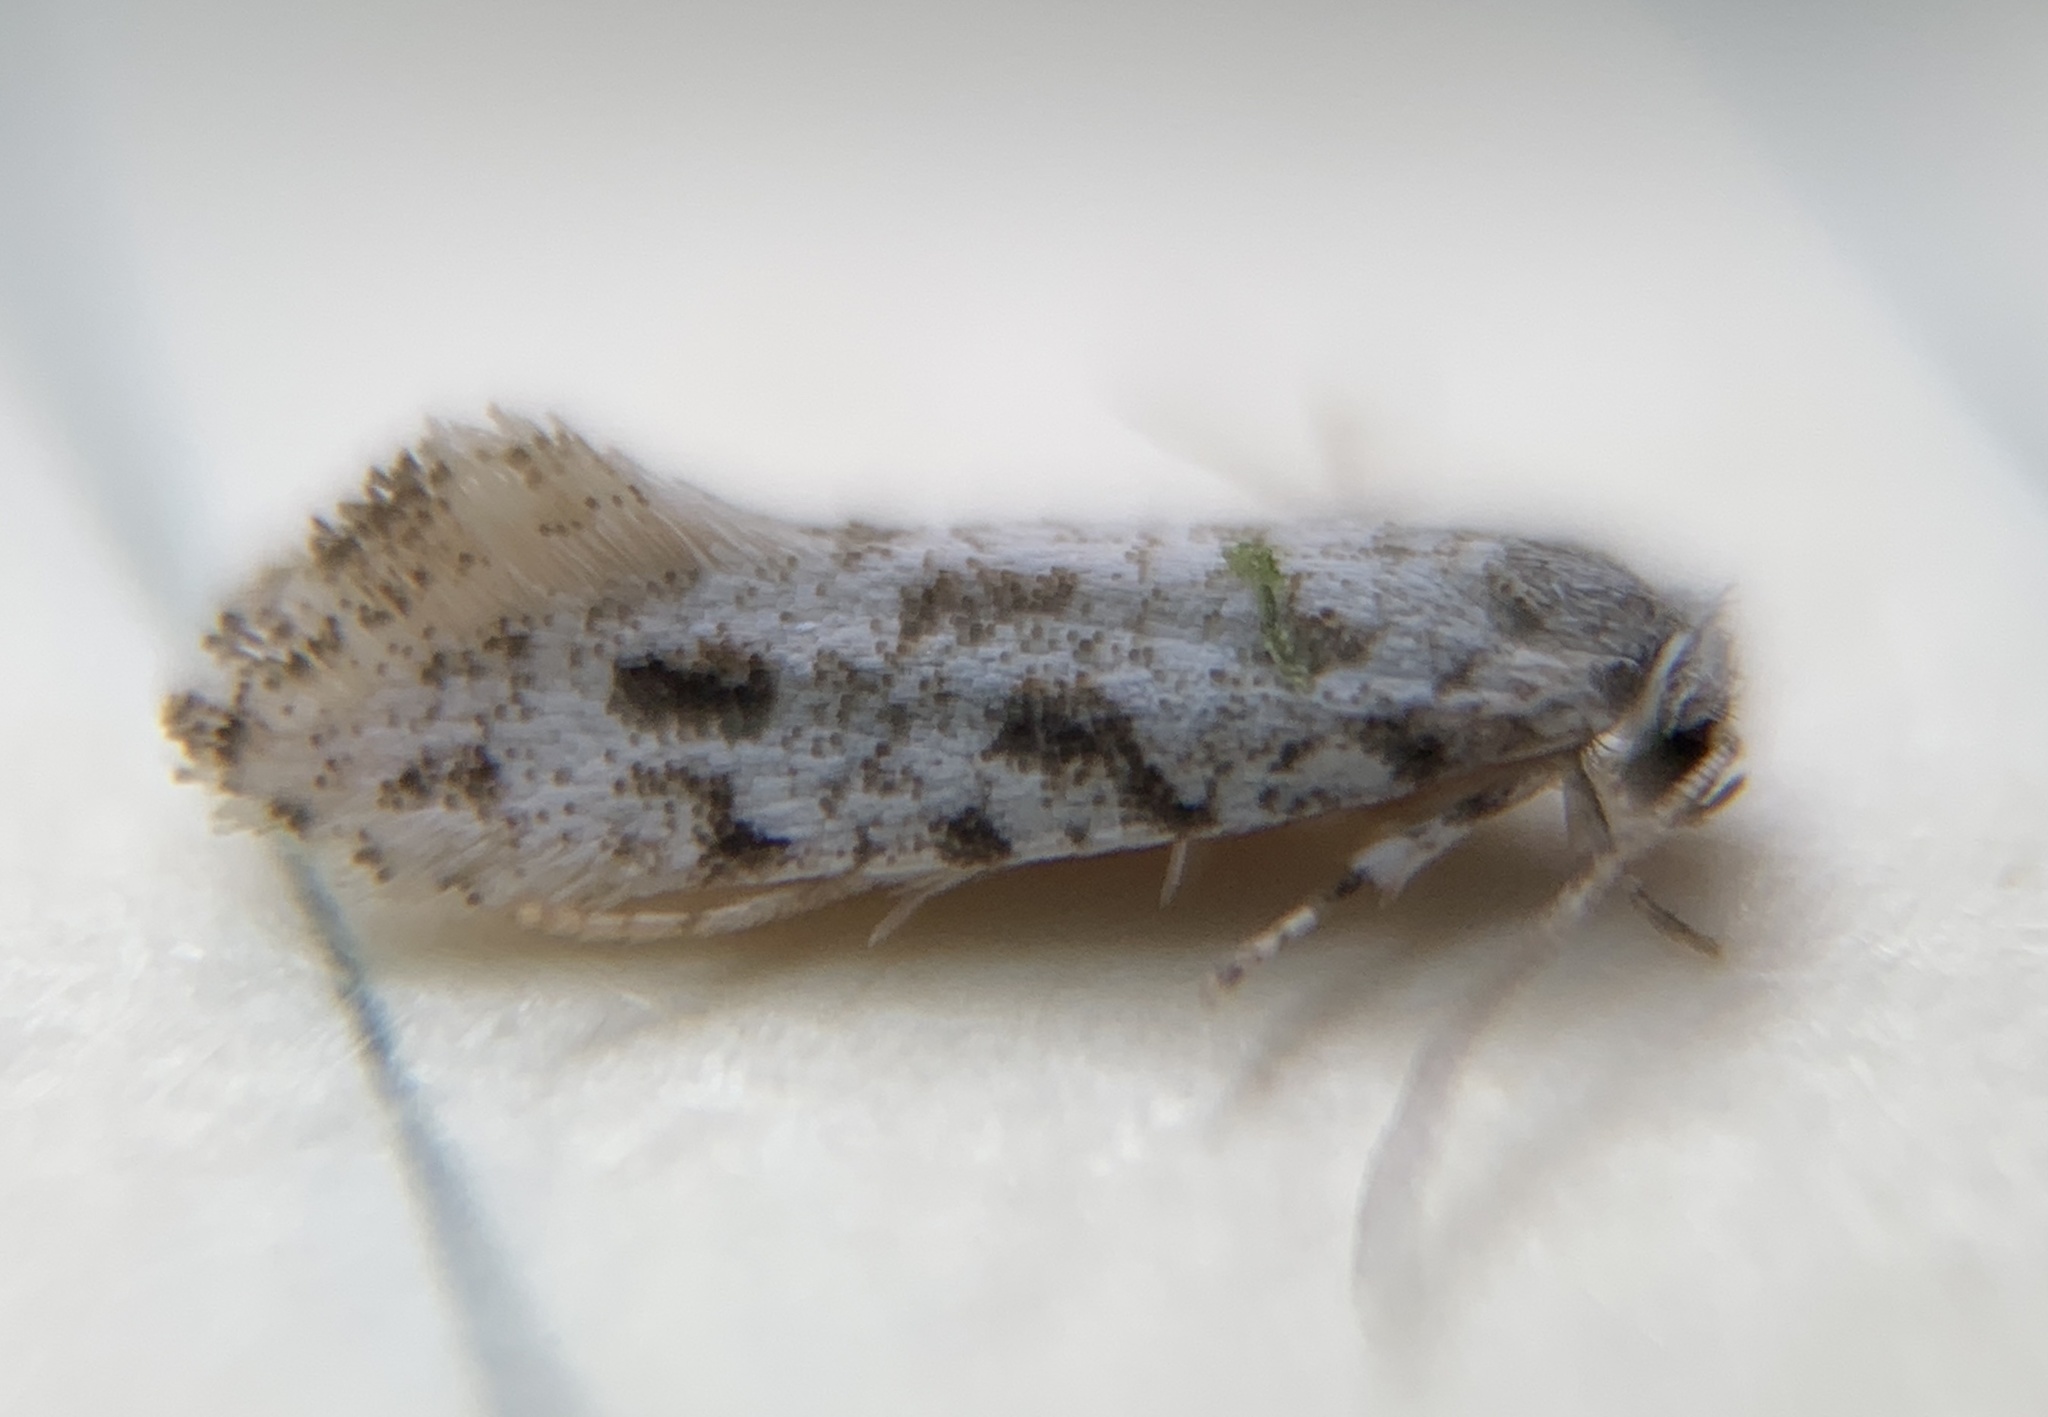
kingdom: Animalia
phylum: Arthropoda
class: Insecta
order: Lepidoptera
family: Meessiidae
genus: Diachorisia
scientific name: Diachorisia velatella
